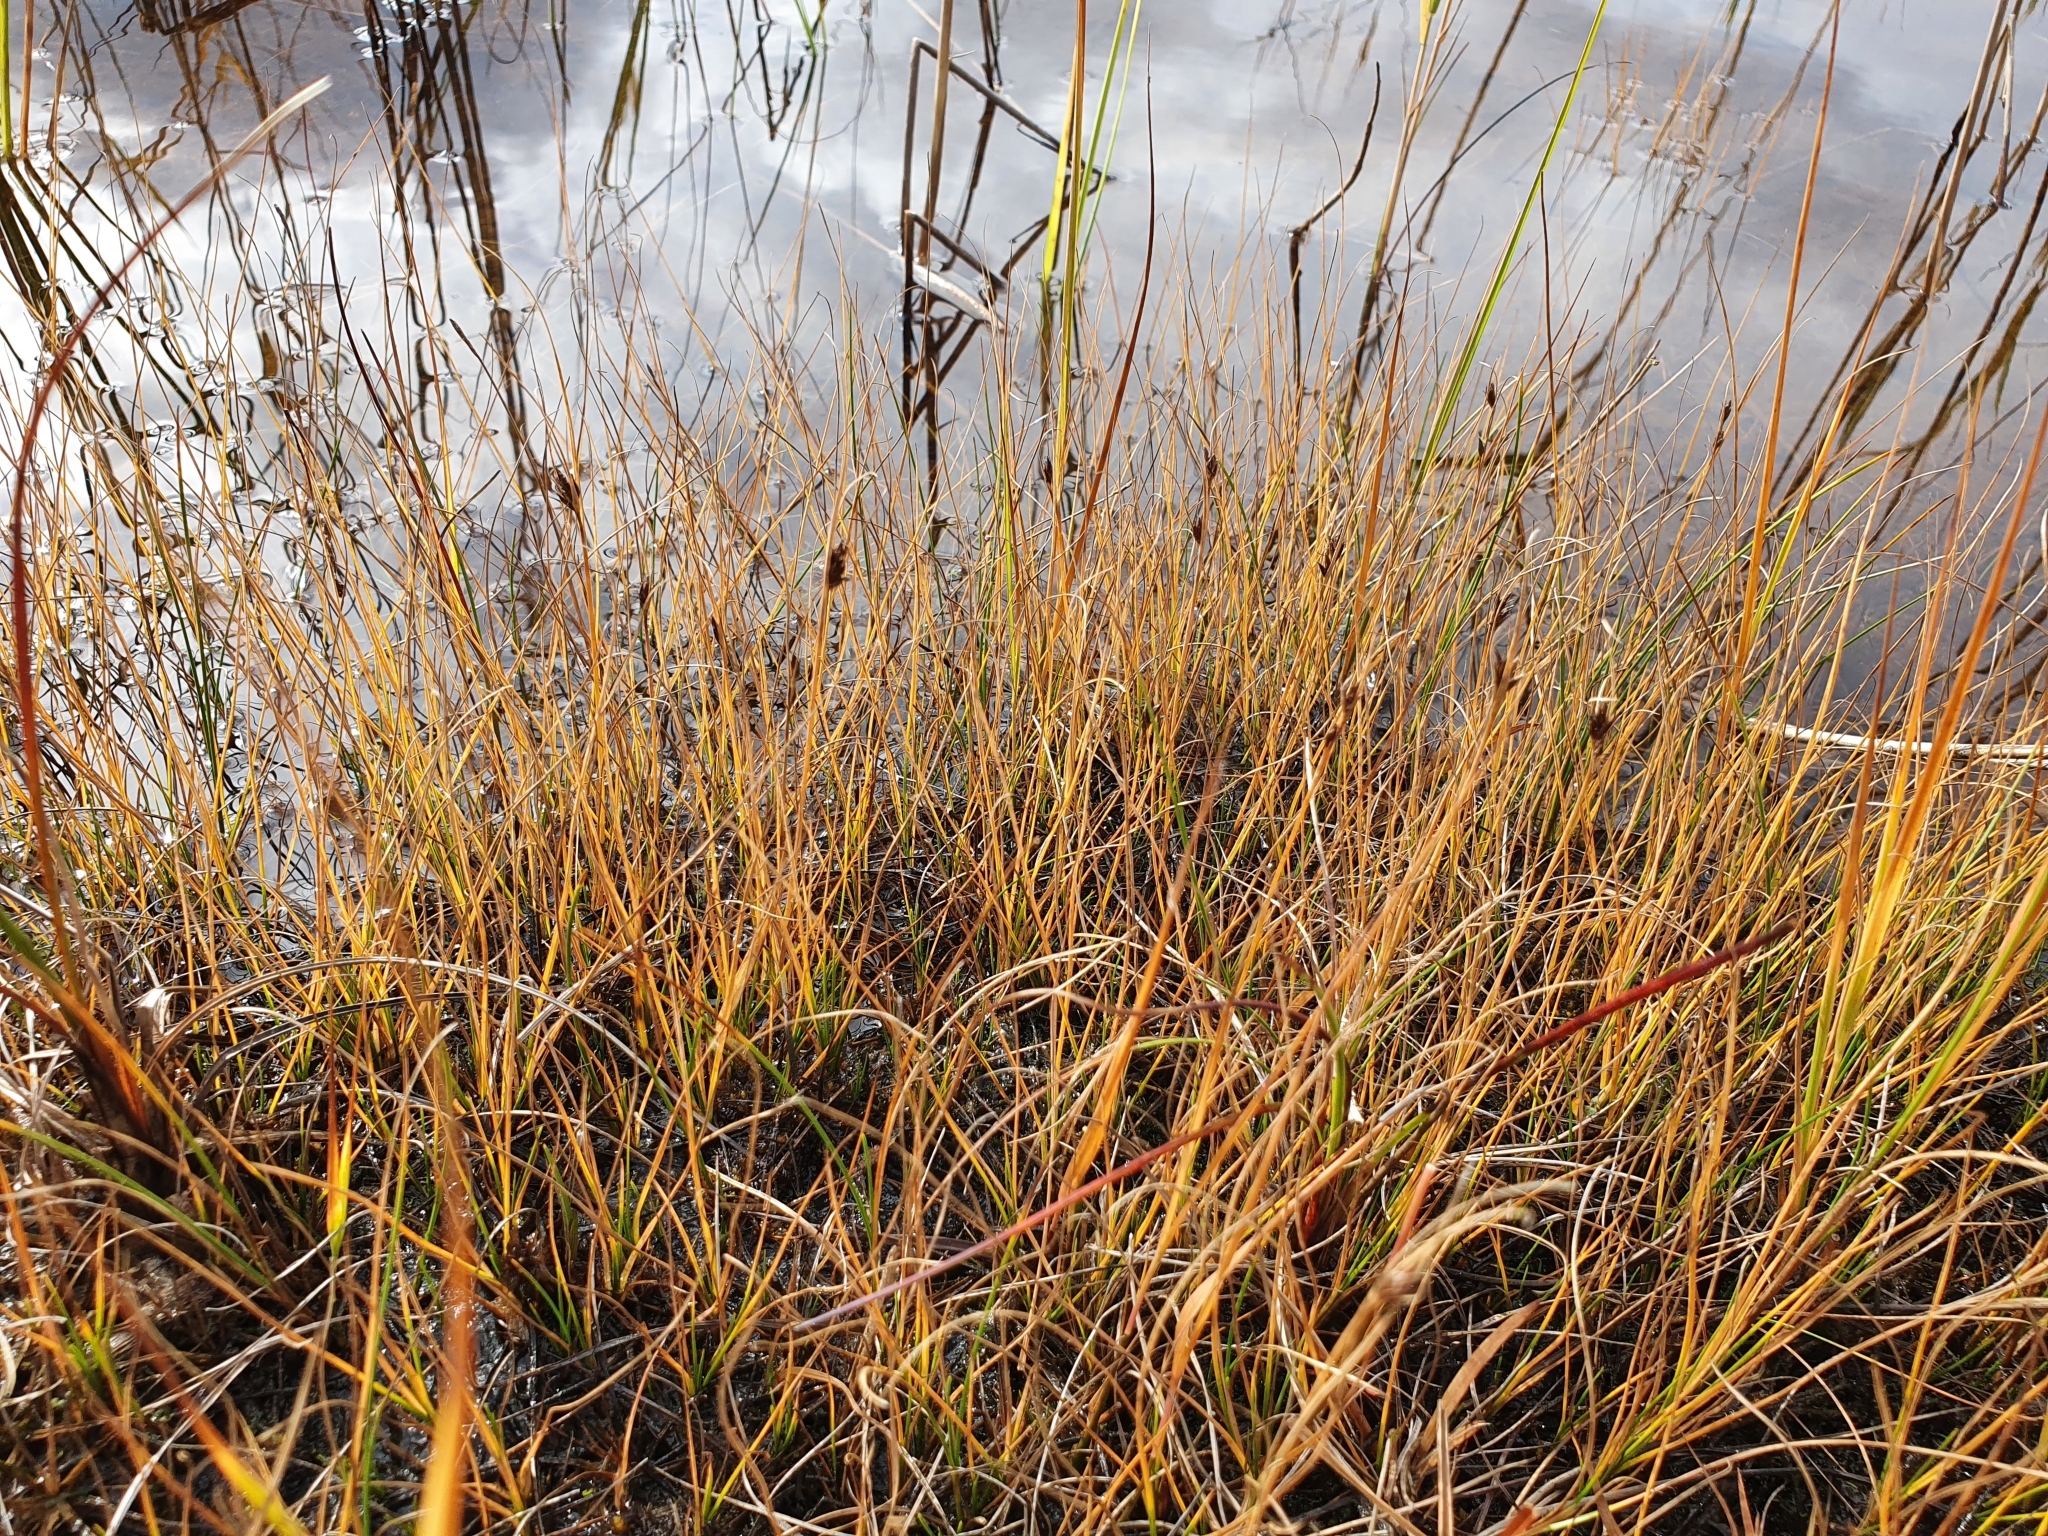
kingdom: Plantae
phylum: Tracheophyta
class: Liliopsida
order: Poales
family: Cyperaceae
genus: Rhynchospora
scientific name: Rhynchospora fusca
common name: Brown beak-sedge
